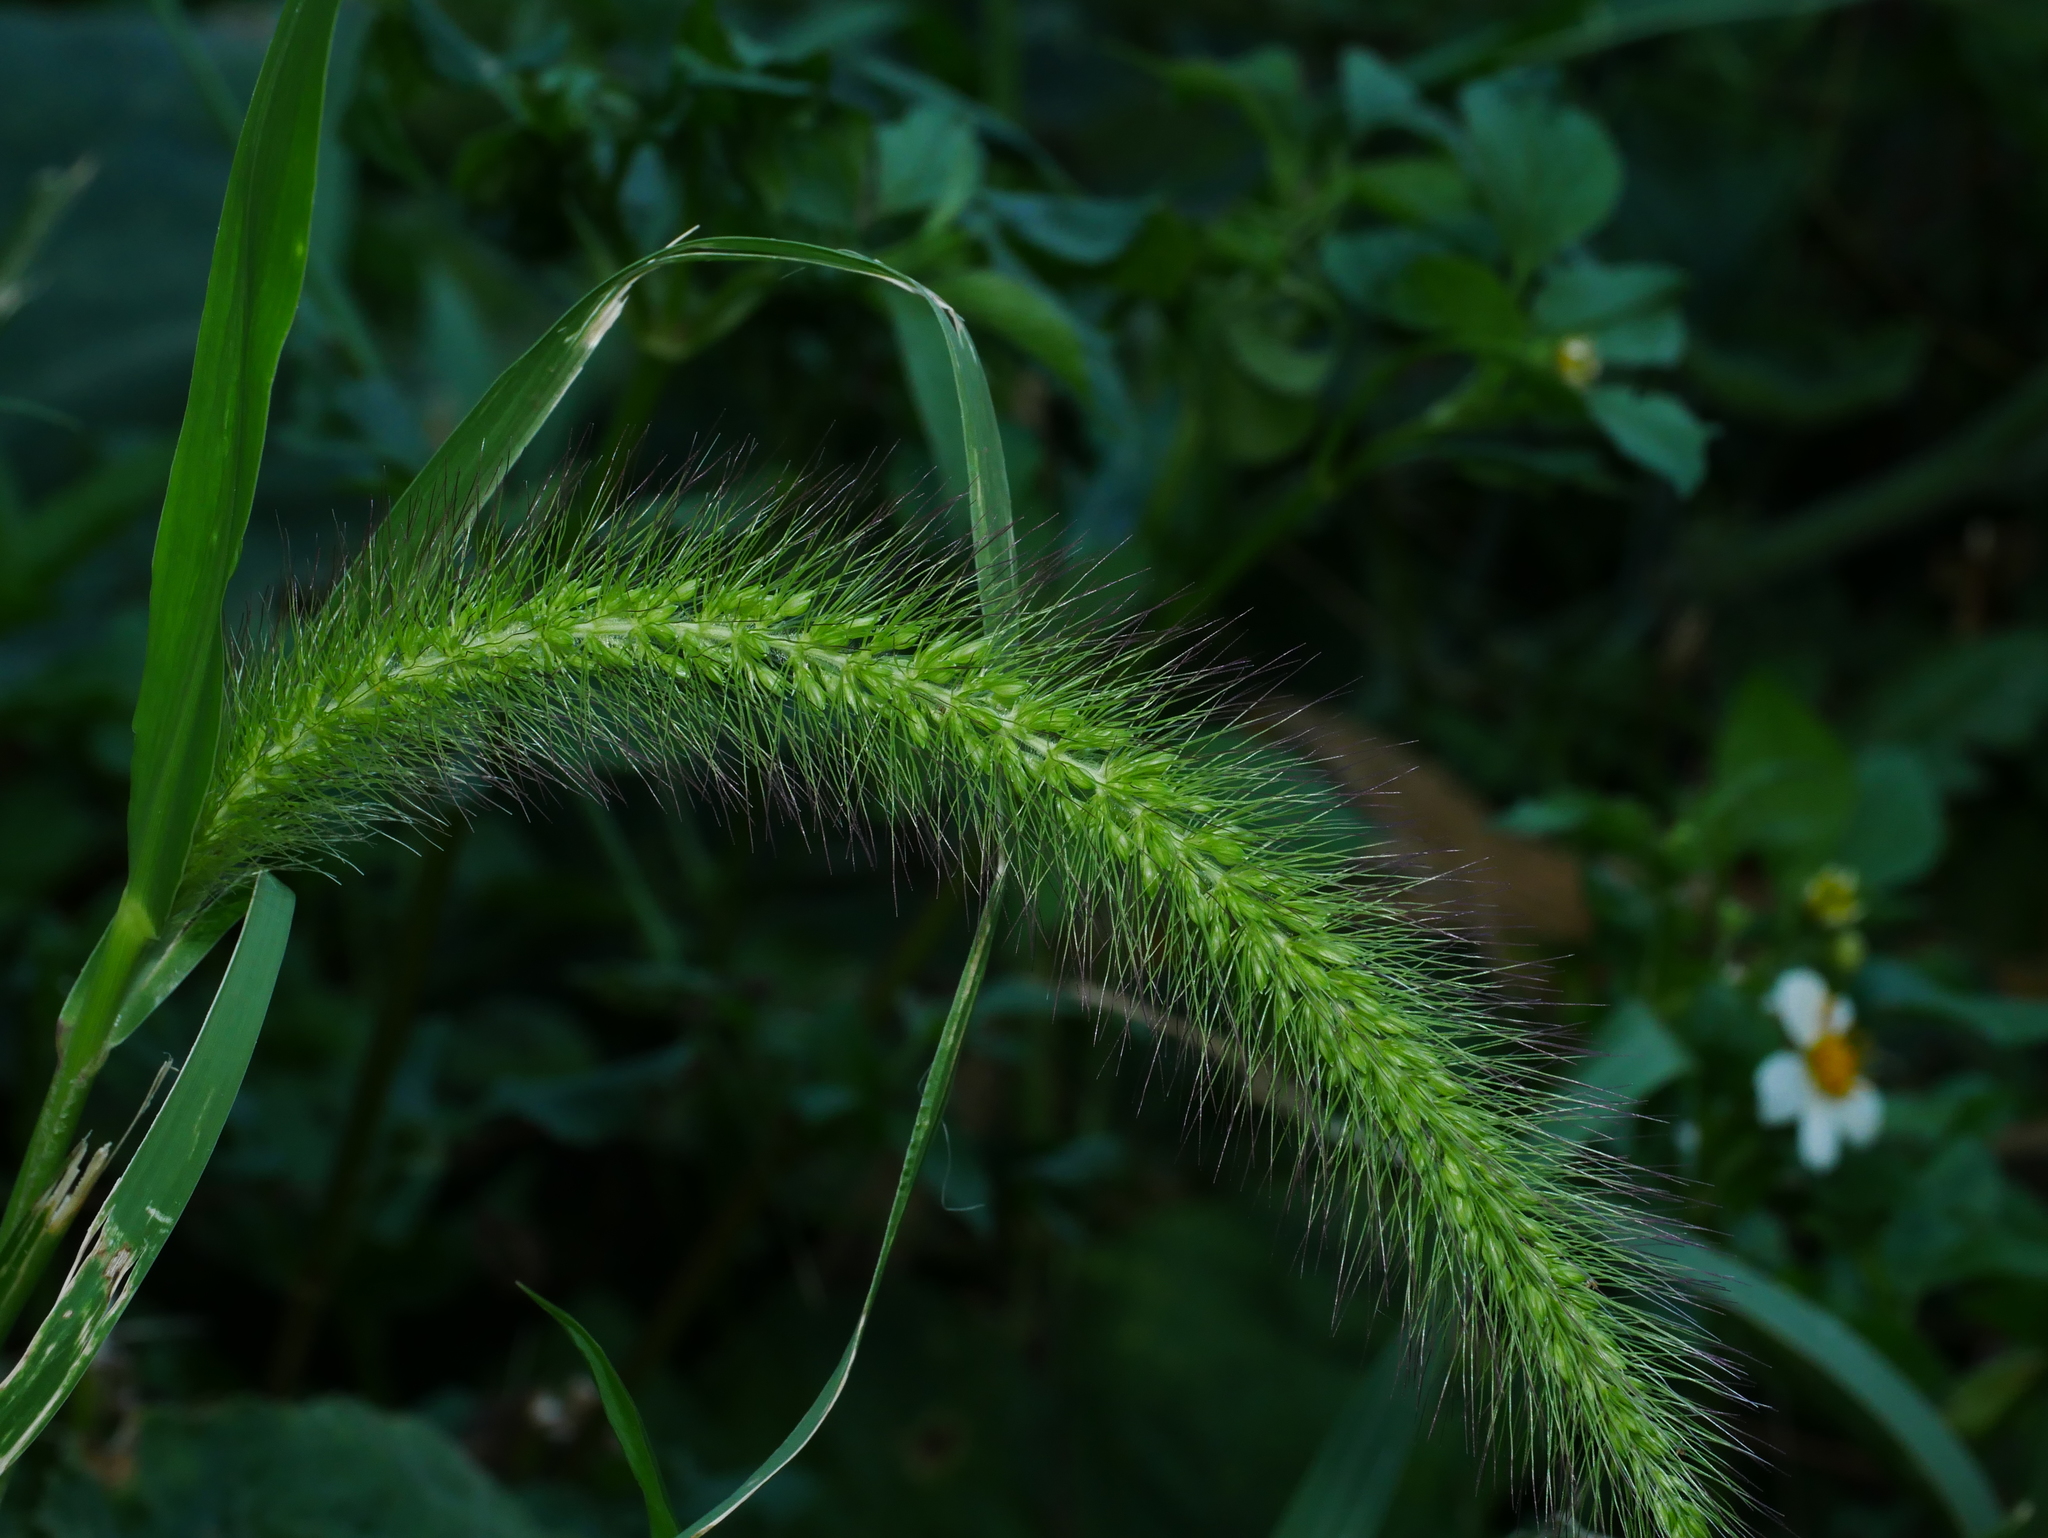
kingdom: Plantae
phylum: Tracheophyta
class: Liliopsida
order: Poales
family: Poaceae
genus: Setaria
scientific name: Setaria faberi
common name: Nodding bristle-grass
